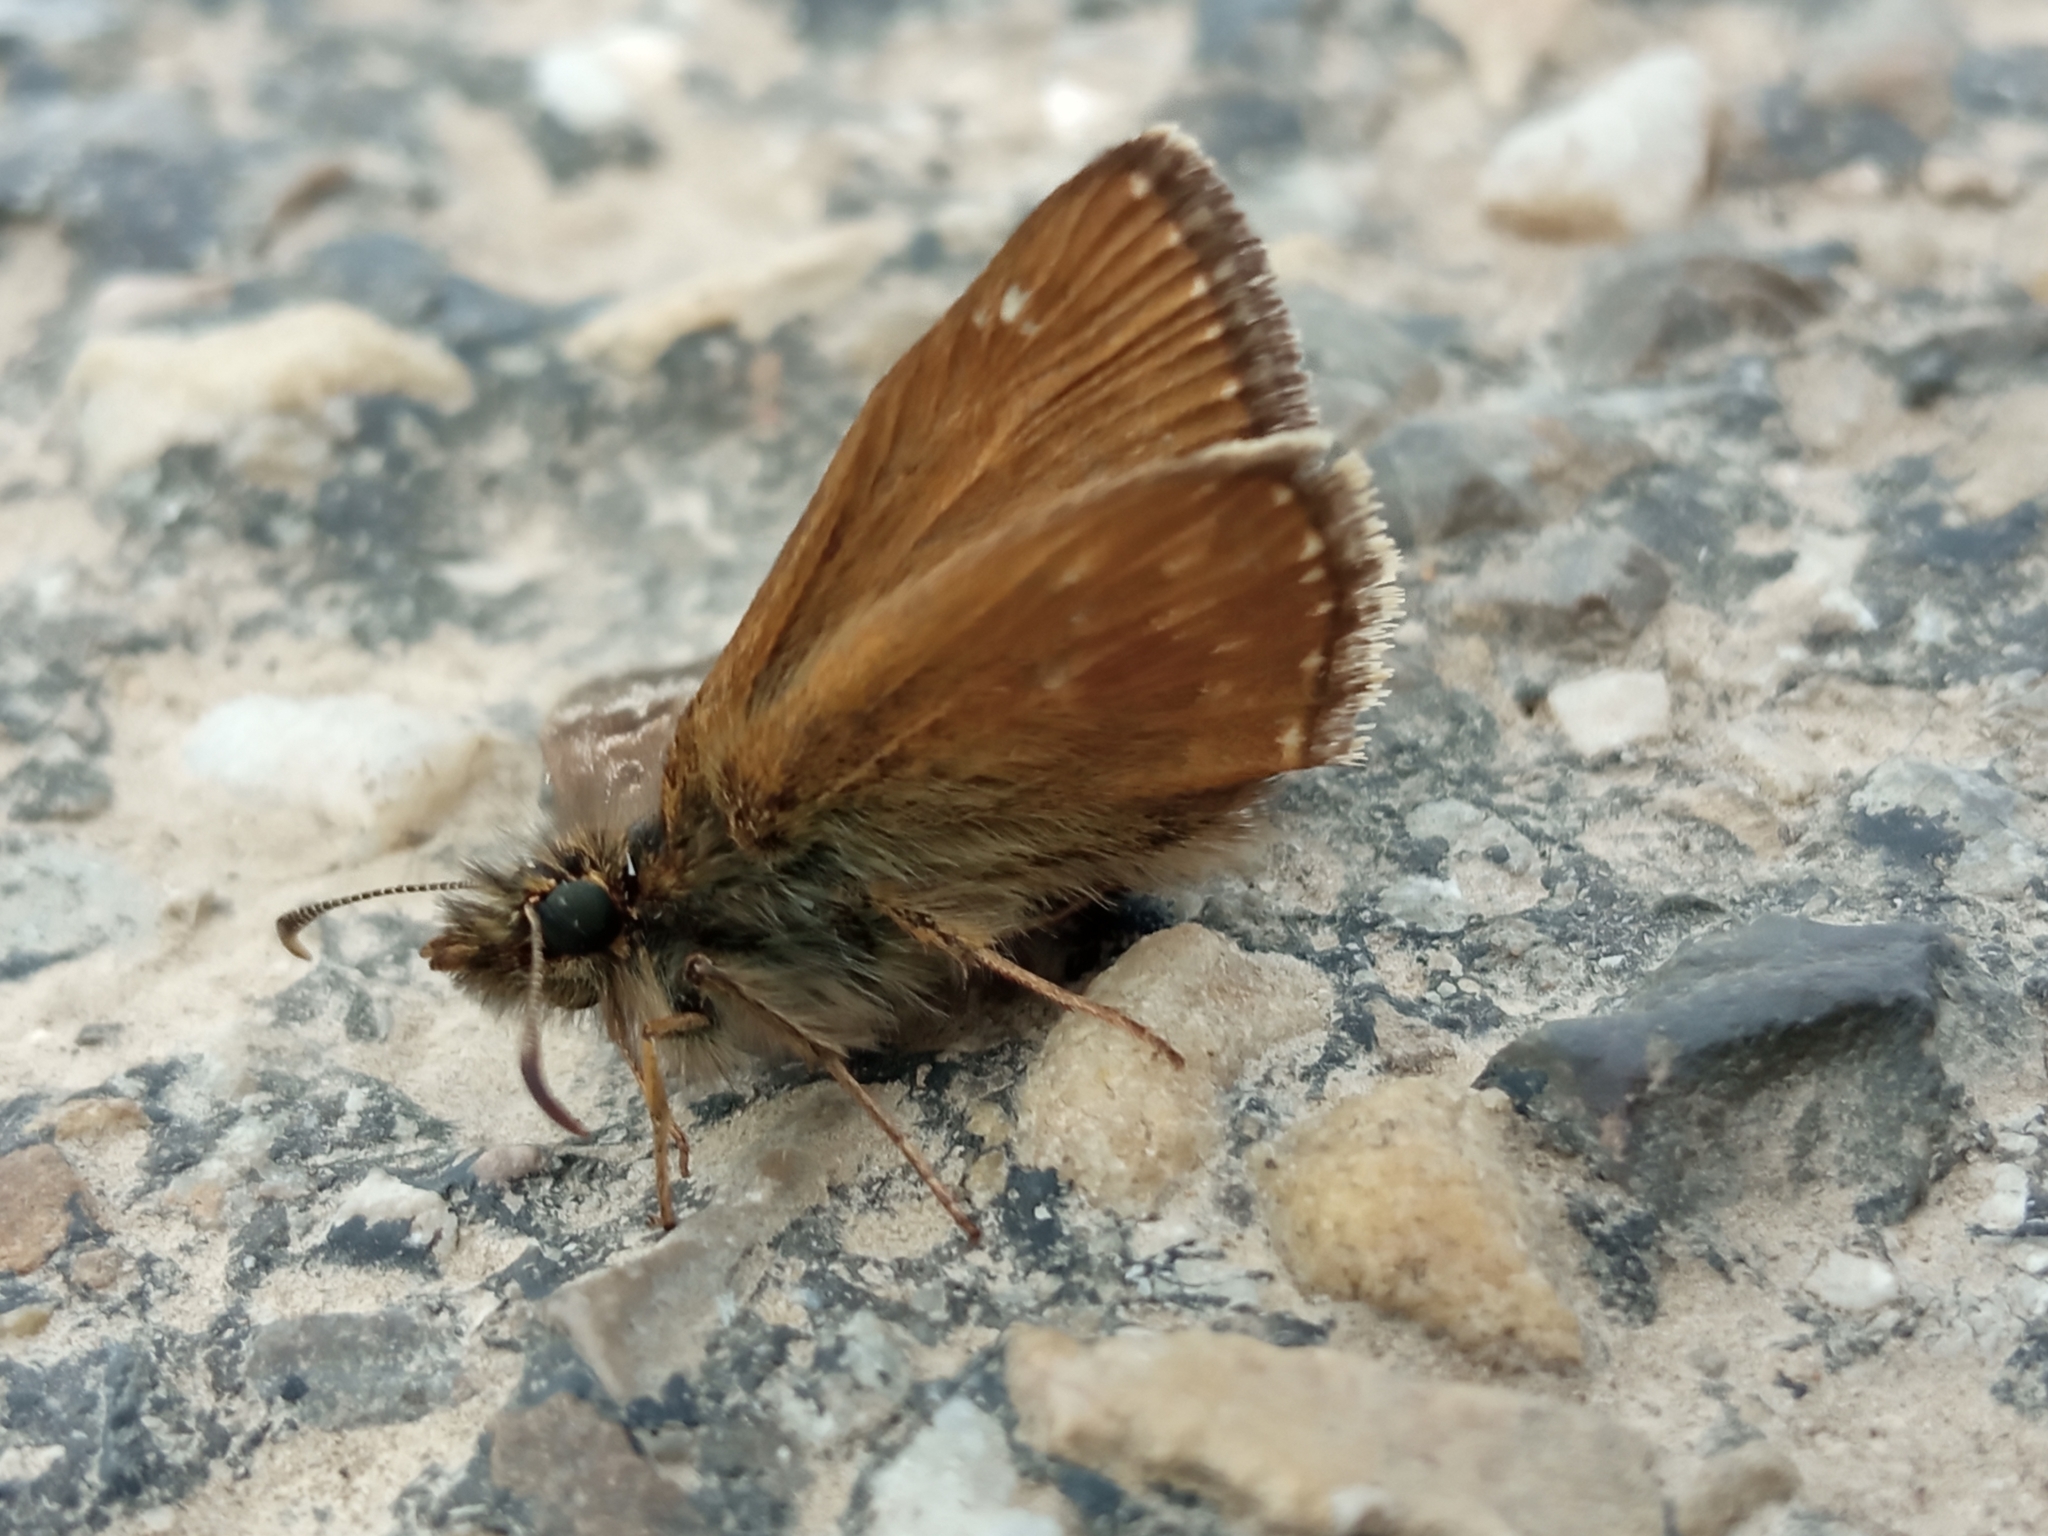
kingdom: Animalia
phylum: Arthropoda
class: Insecta
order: Lepidoptera
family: Hesperiidae
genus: Erynnis
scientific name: Erynnis tages
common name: Dingy skipper
